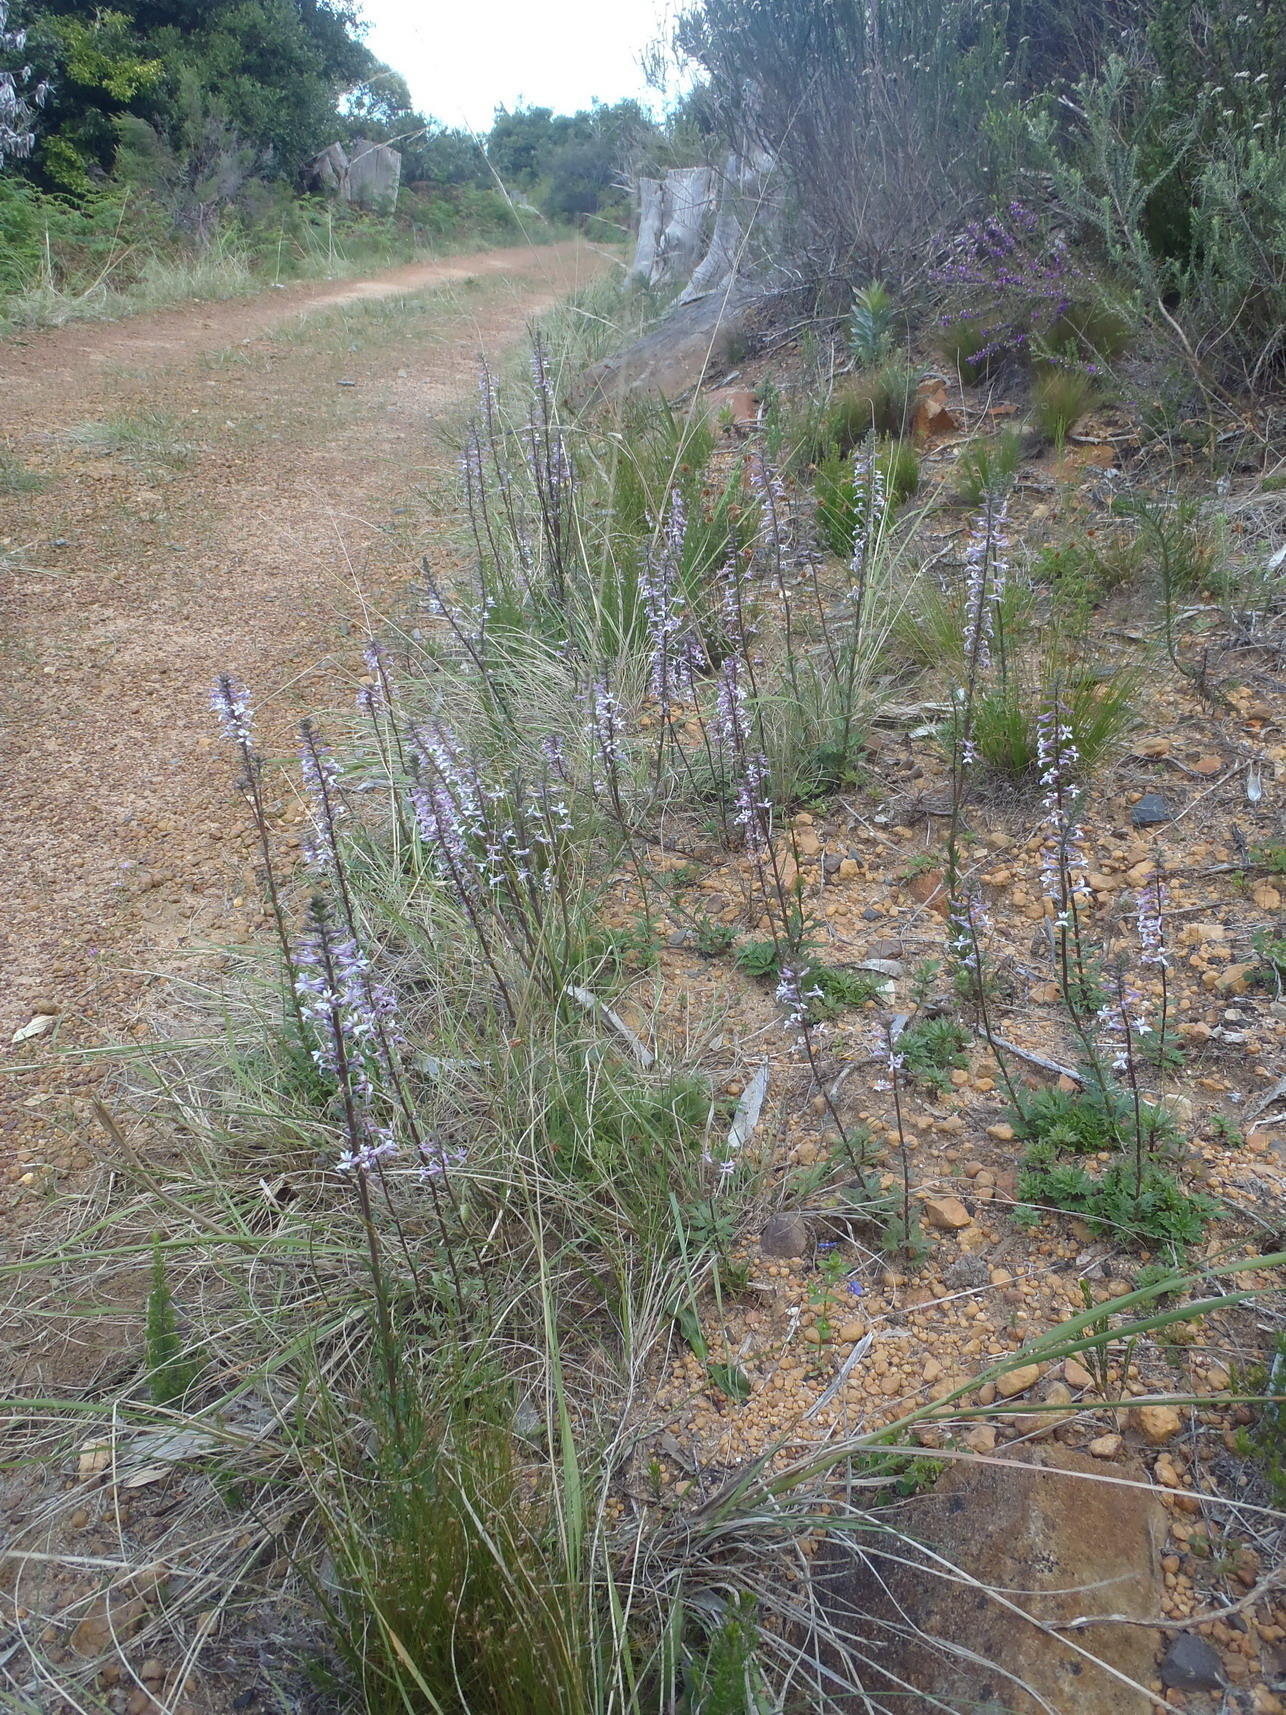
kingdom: Plantae
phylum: Tracheophyta
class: Magnoliopsida
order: Asterales
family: Campanulaceae
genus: Cyphia
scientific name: Cyphia bulbosa
